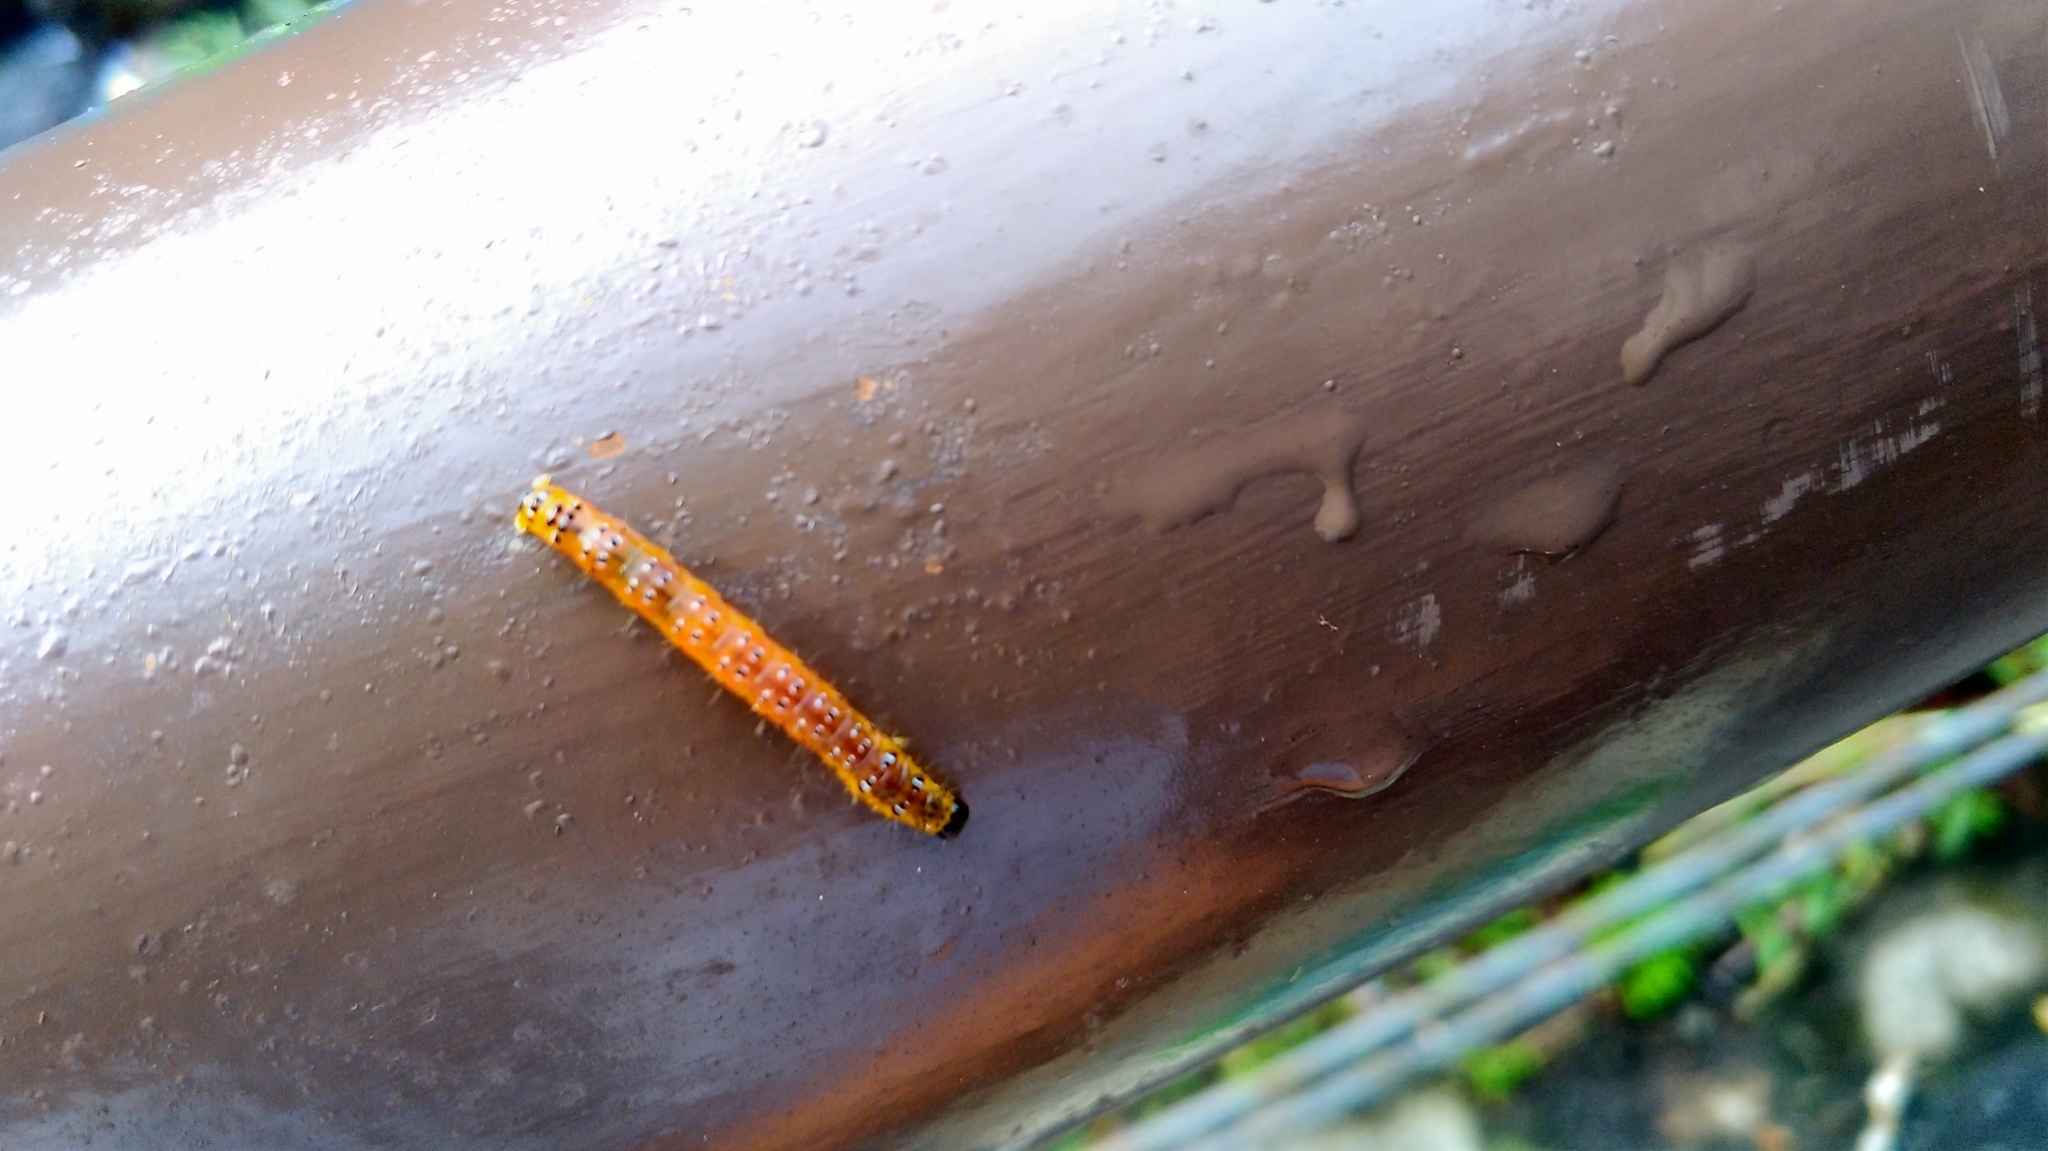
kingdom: Animalia
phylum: Arthropoda
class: Insecta
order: Lepidoptera
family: Crambidae
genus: Glyphodes
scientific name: Glyphodes bivitralis
